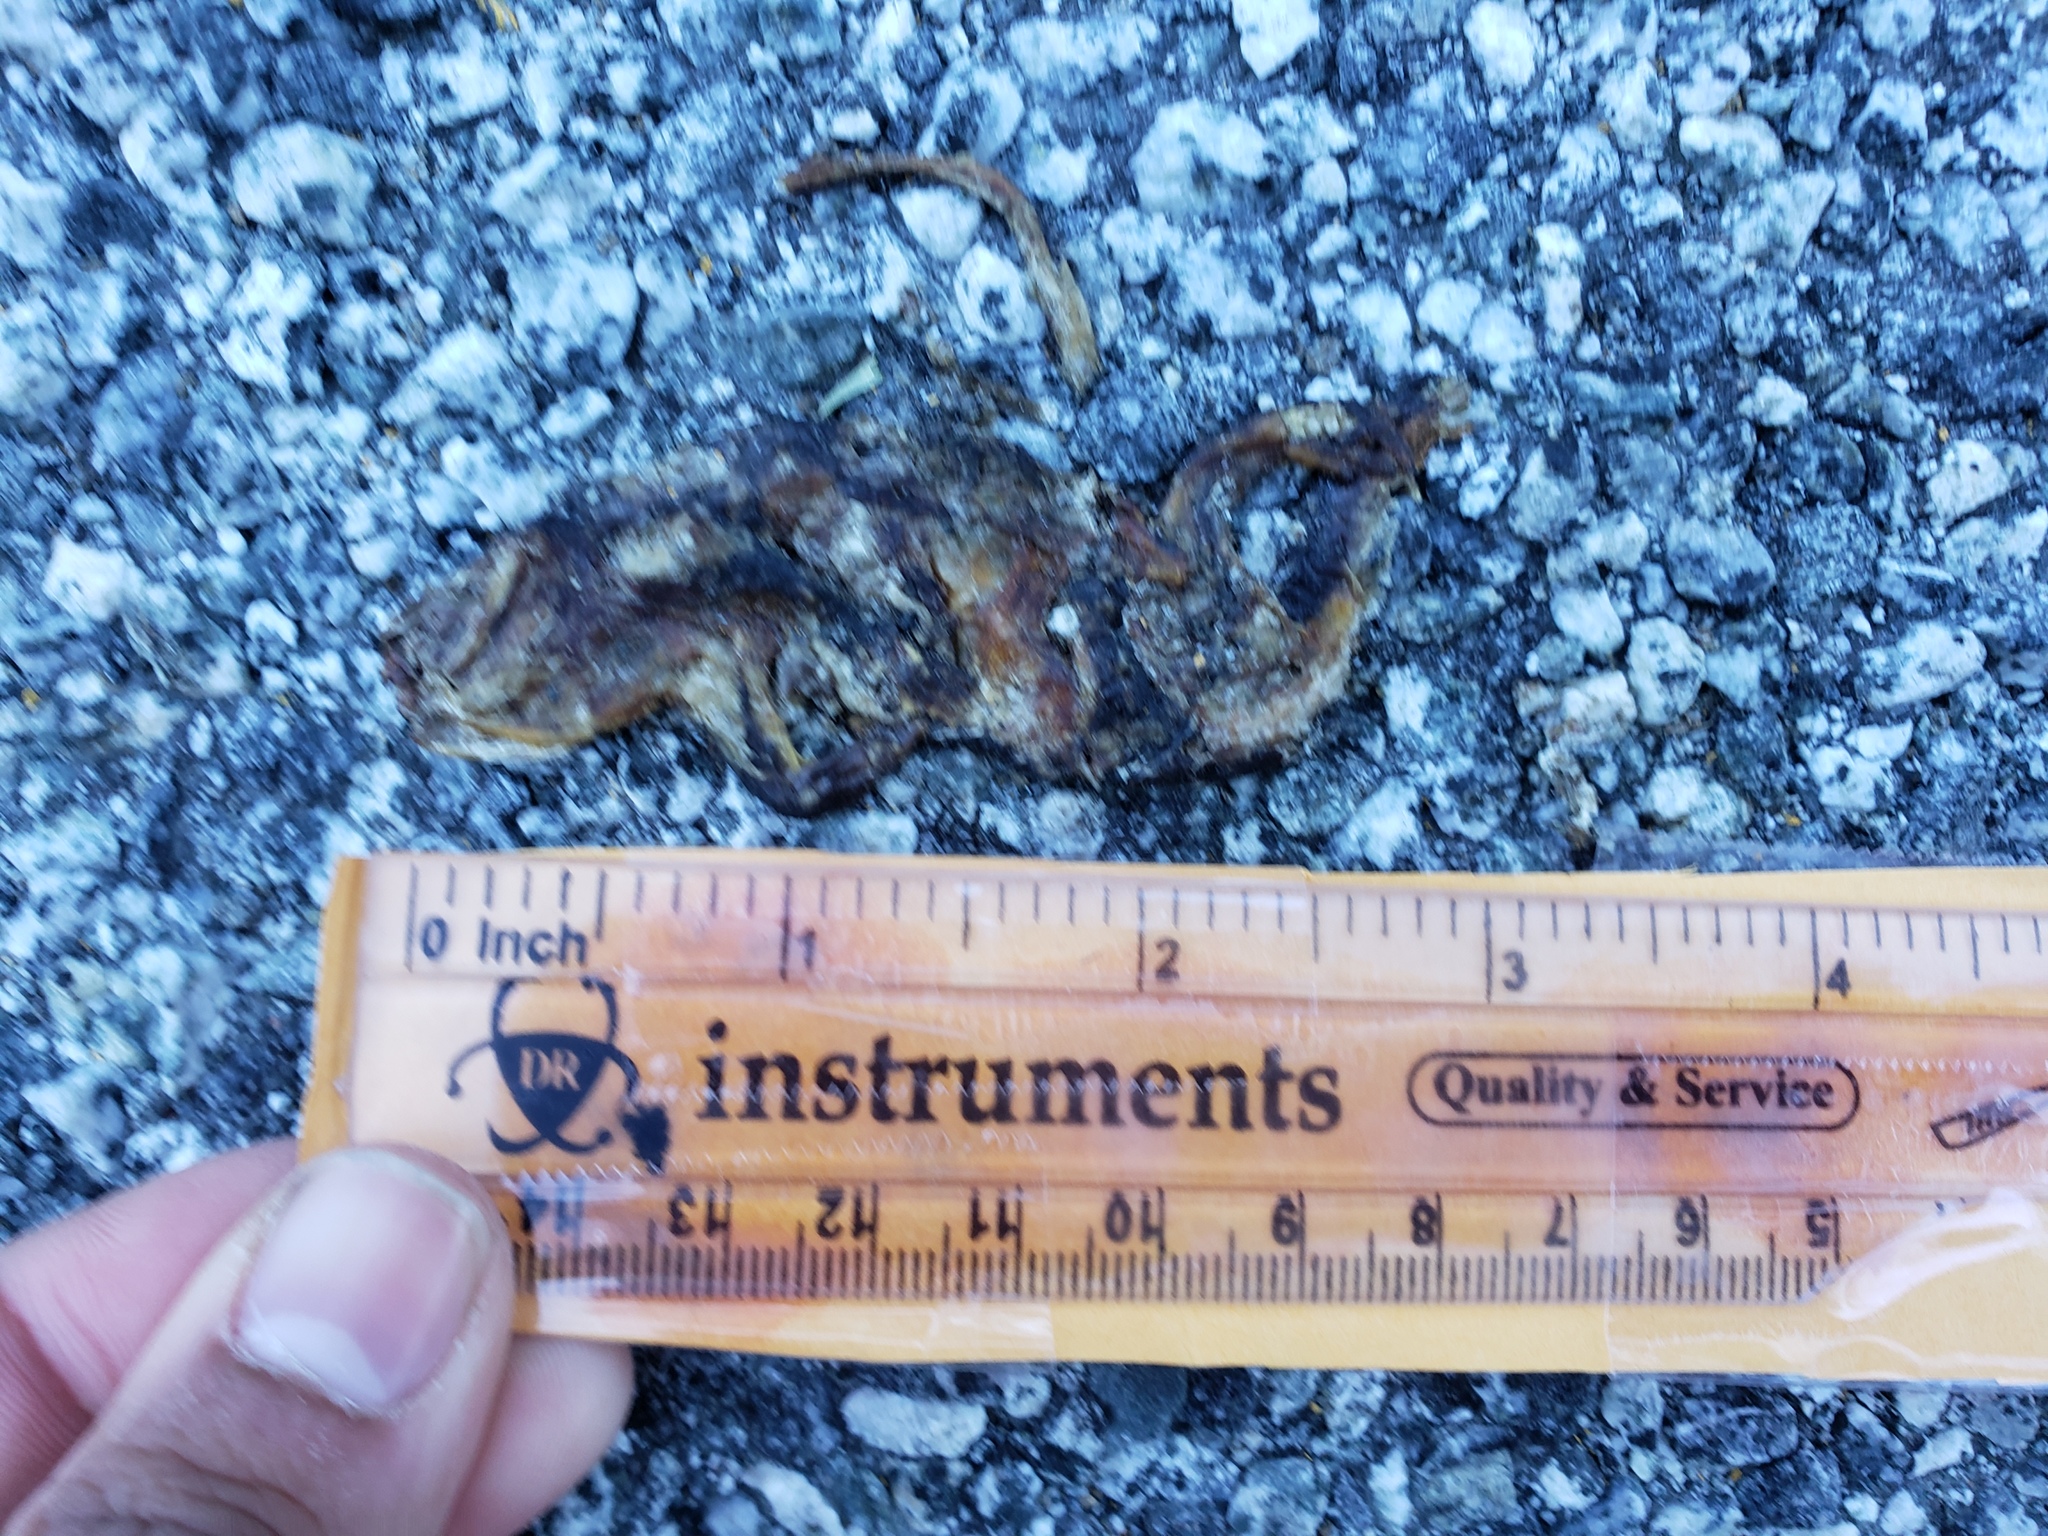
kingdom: Animalia
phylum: Chordata
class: Amphibia
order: Caudata
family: Salamandridae
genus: Taricha
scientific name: Taricha
